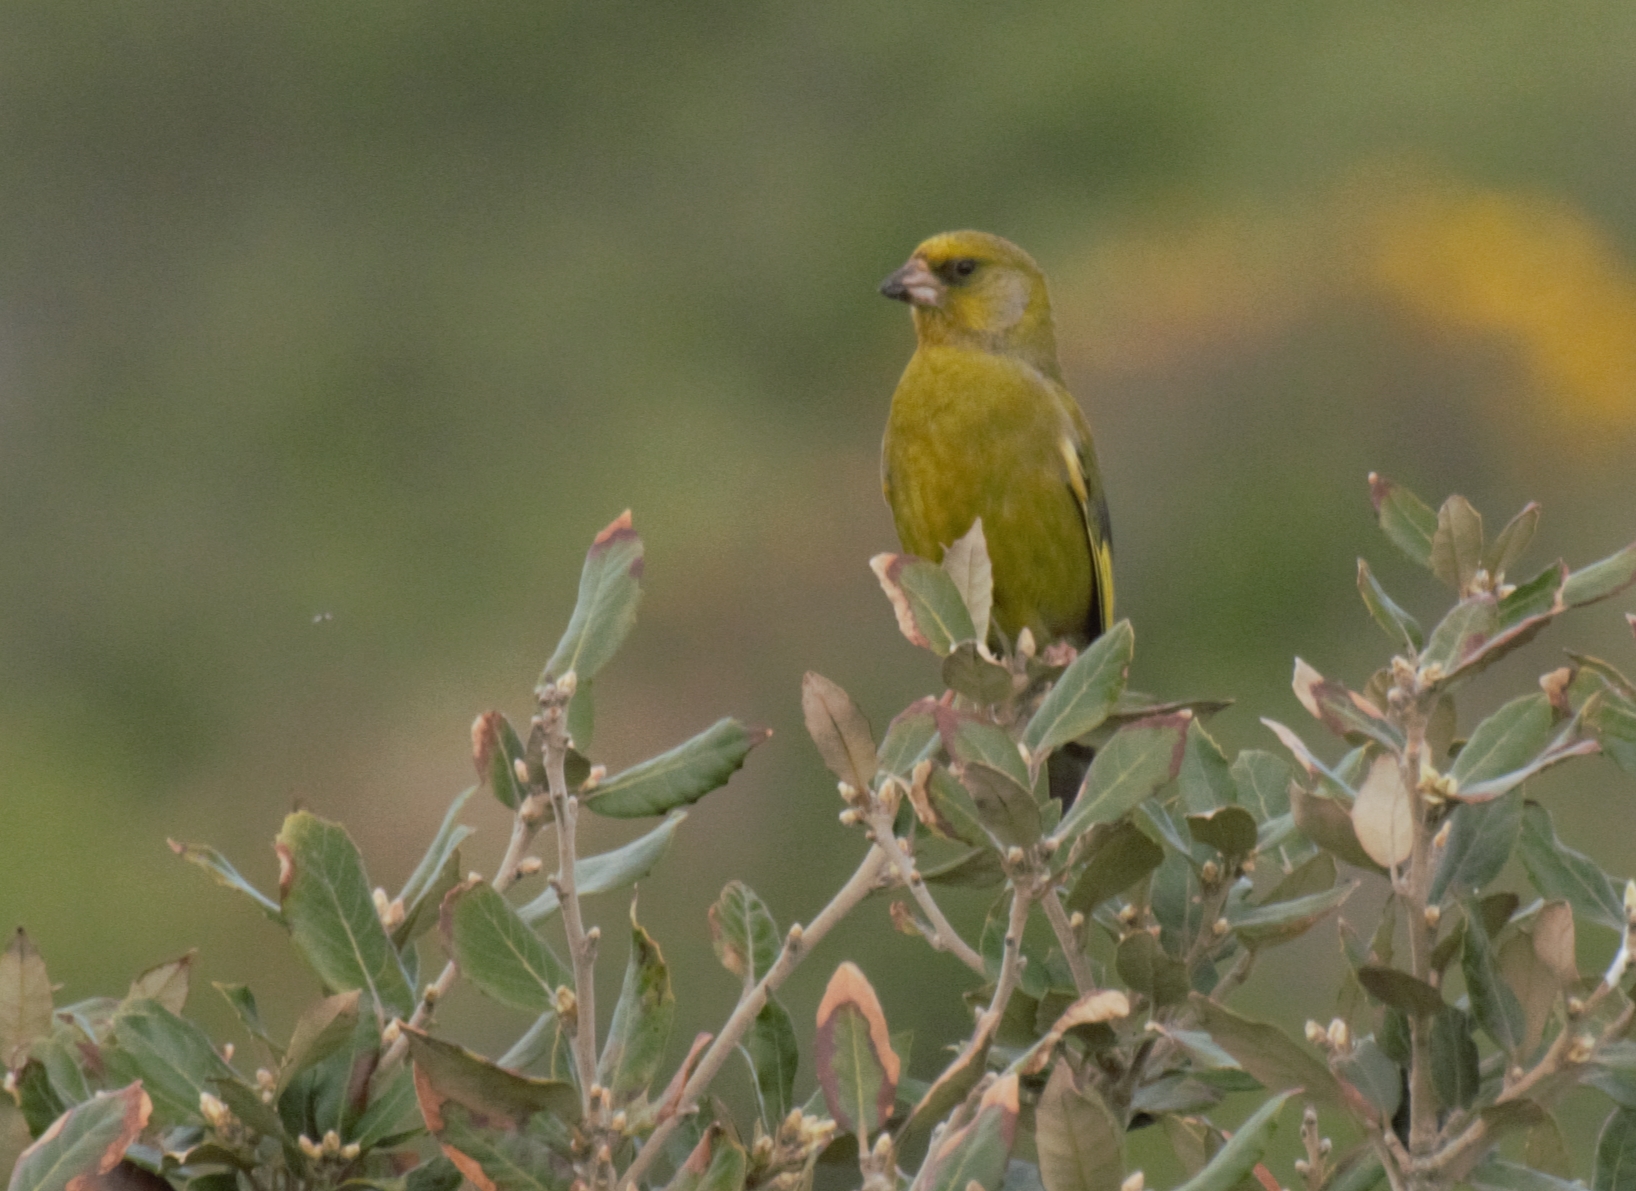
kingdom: Plantae
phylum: Tracheophyta
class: Liliopsida
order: Poales
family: Poaceae
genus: Chloris
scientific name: Chloris chloris
